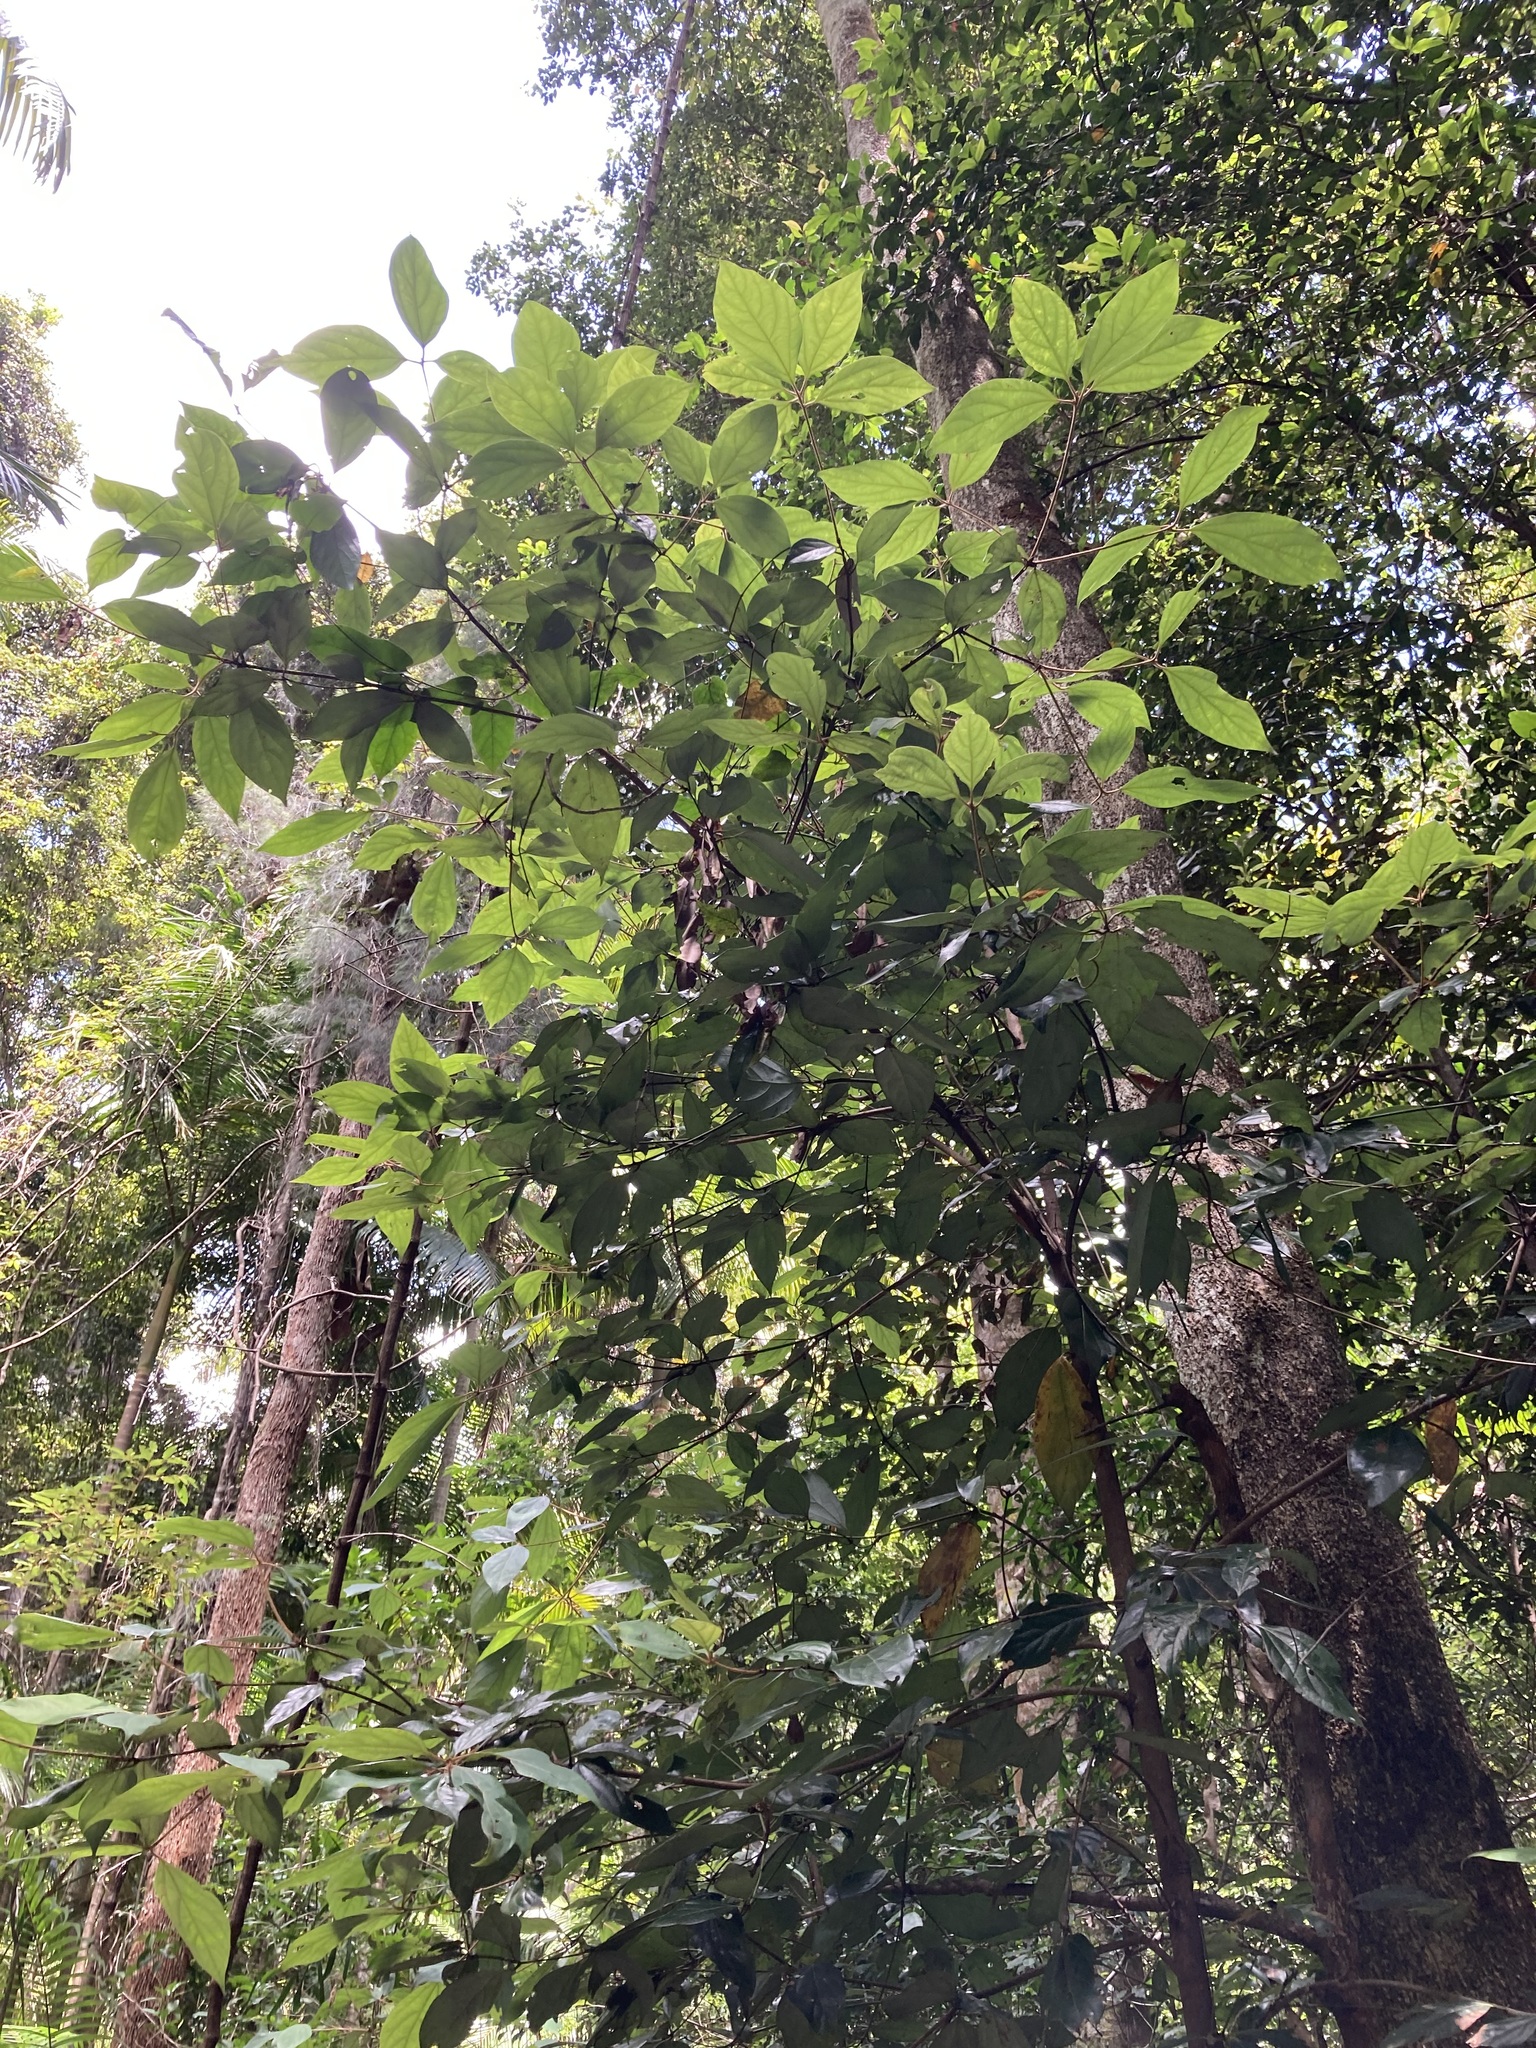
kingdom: Plantae
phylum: Tracheophyta
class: Magnoliopsida
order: Laurales
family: Lauraceae
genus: Neolitsea
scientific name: Neolitsea dealbata
